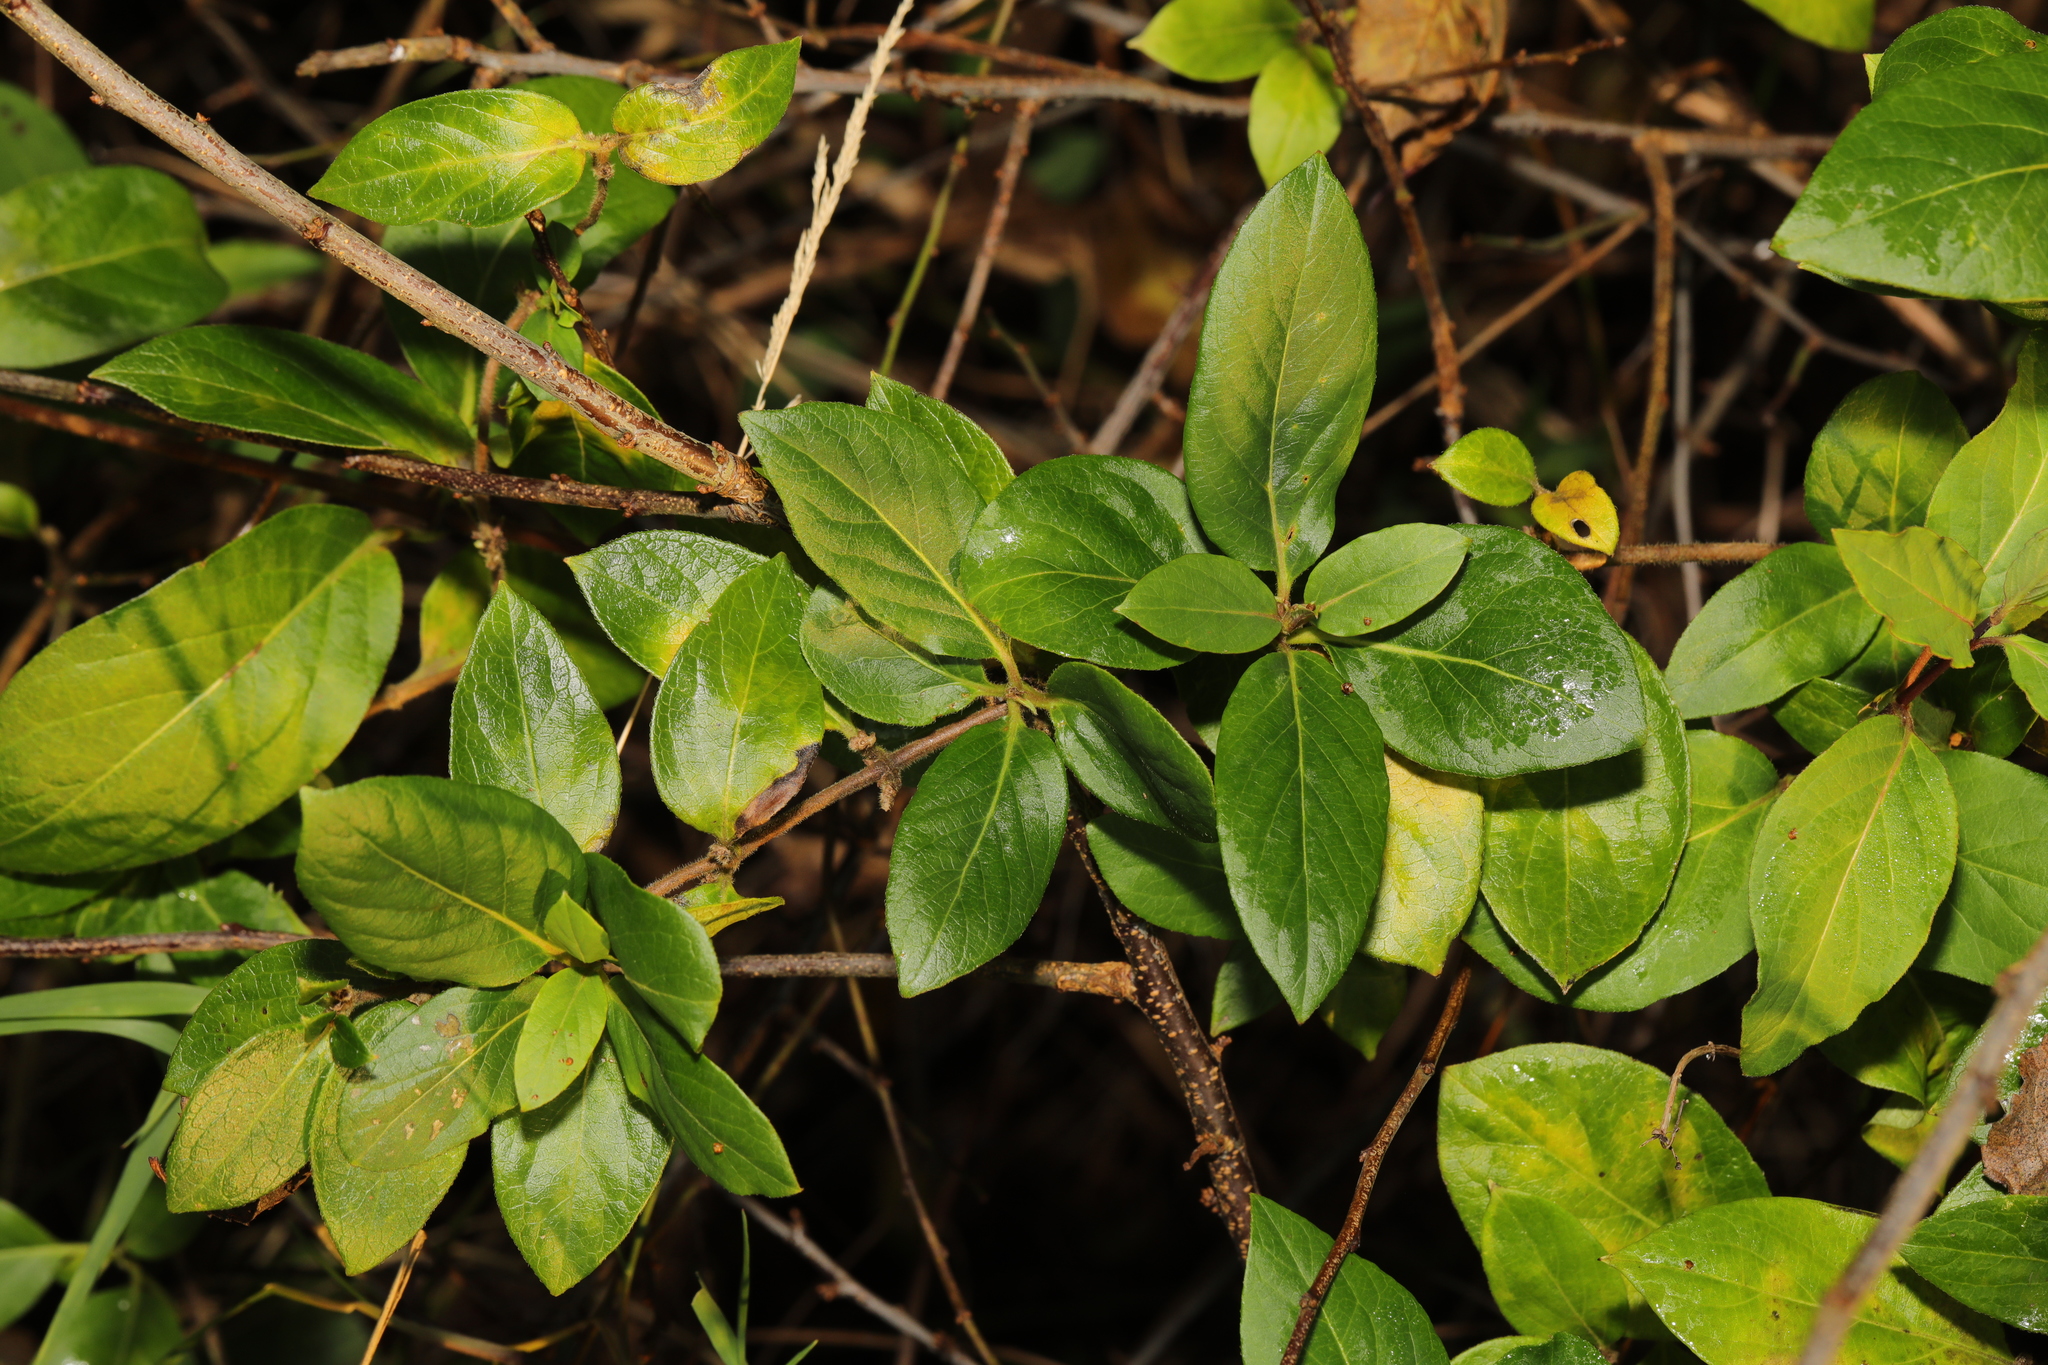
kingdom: Plantae
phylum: Tracheophyta
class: Magnoliopsida
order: Dipsacales
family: Caprifoliaceae
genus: Lonicera
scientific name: Lonicera japonica
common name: Japanese honeysuckle
